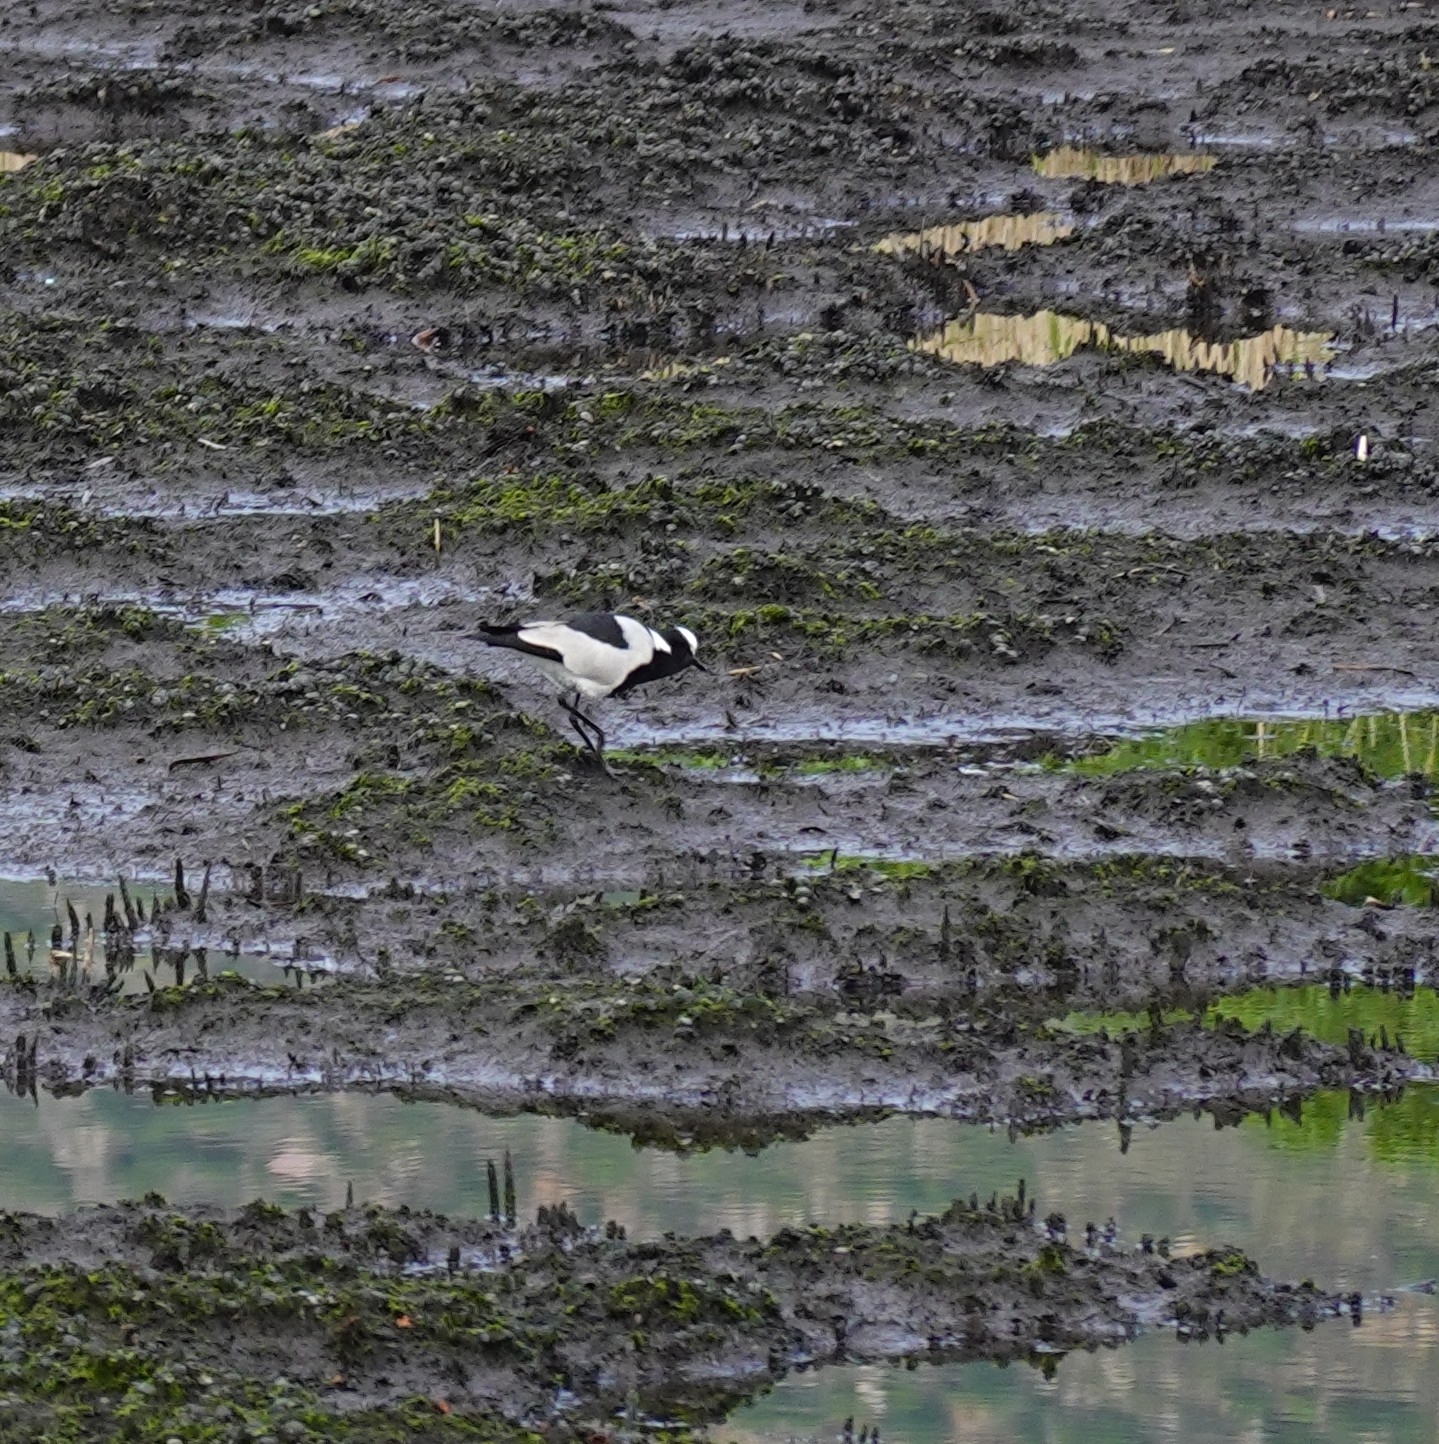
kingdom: Animalia
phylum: Chordata
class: Aves
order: Charadriiformes
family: Charadriidae
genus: Vanellus
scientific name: Vanellus armatus
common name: Blacksmith lapwing
